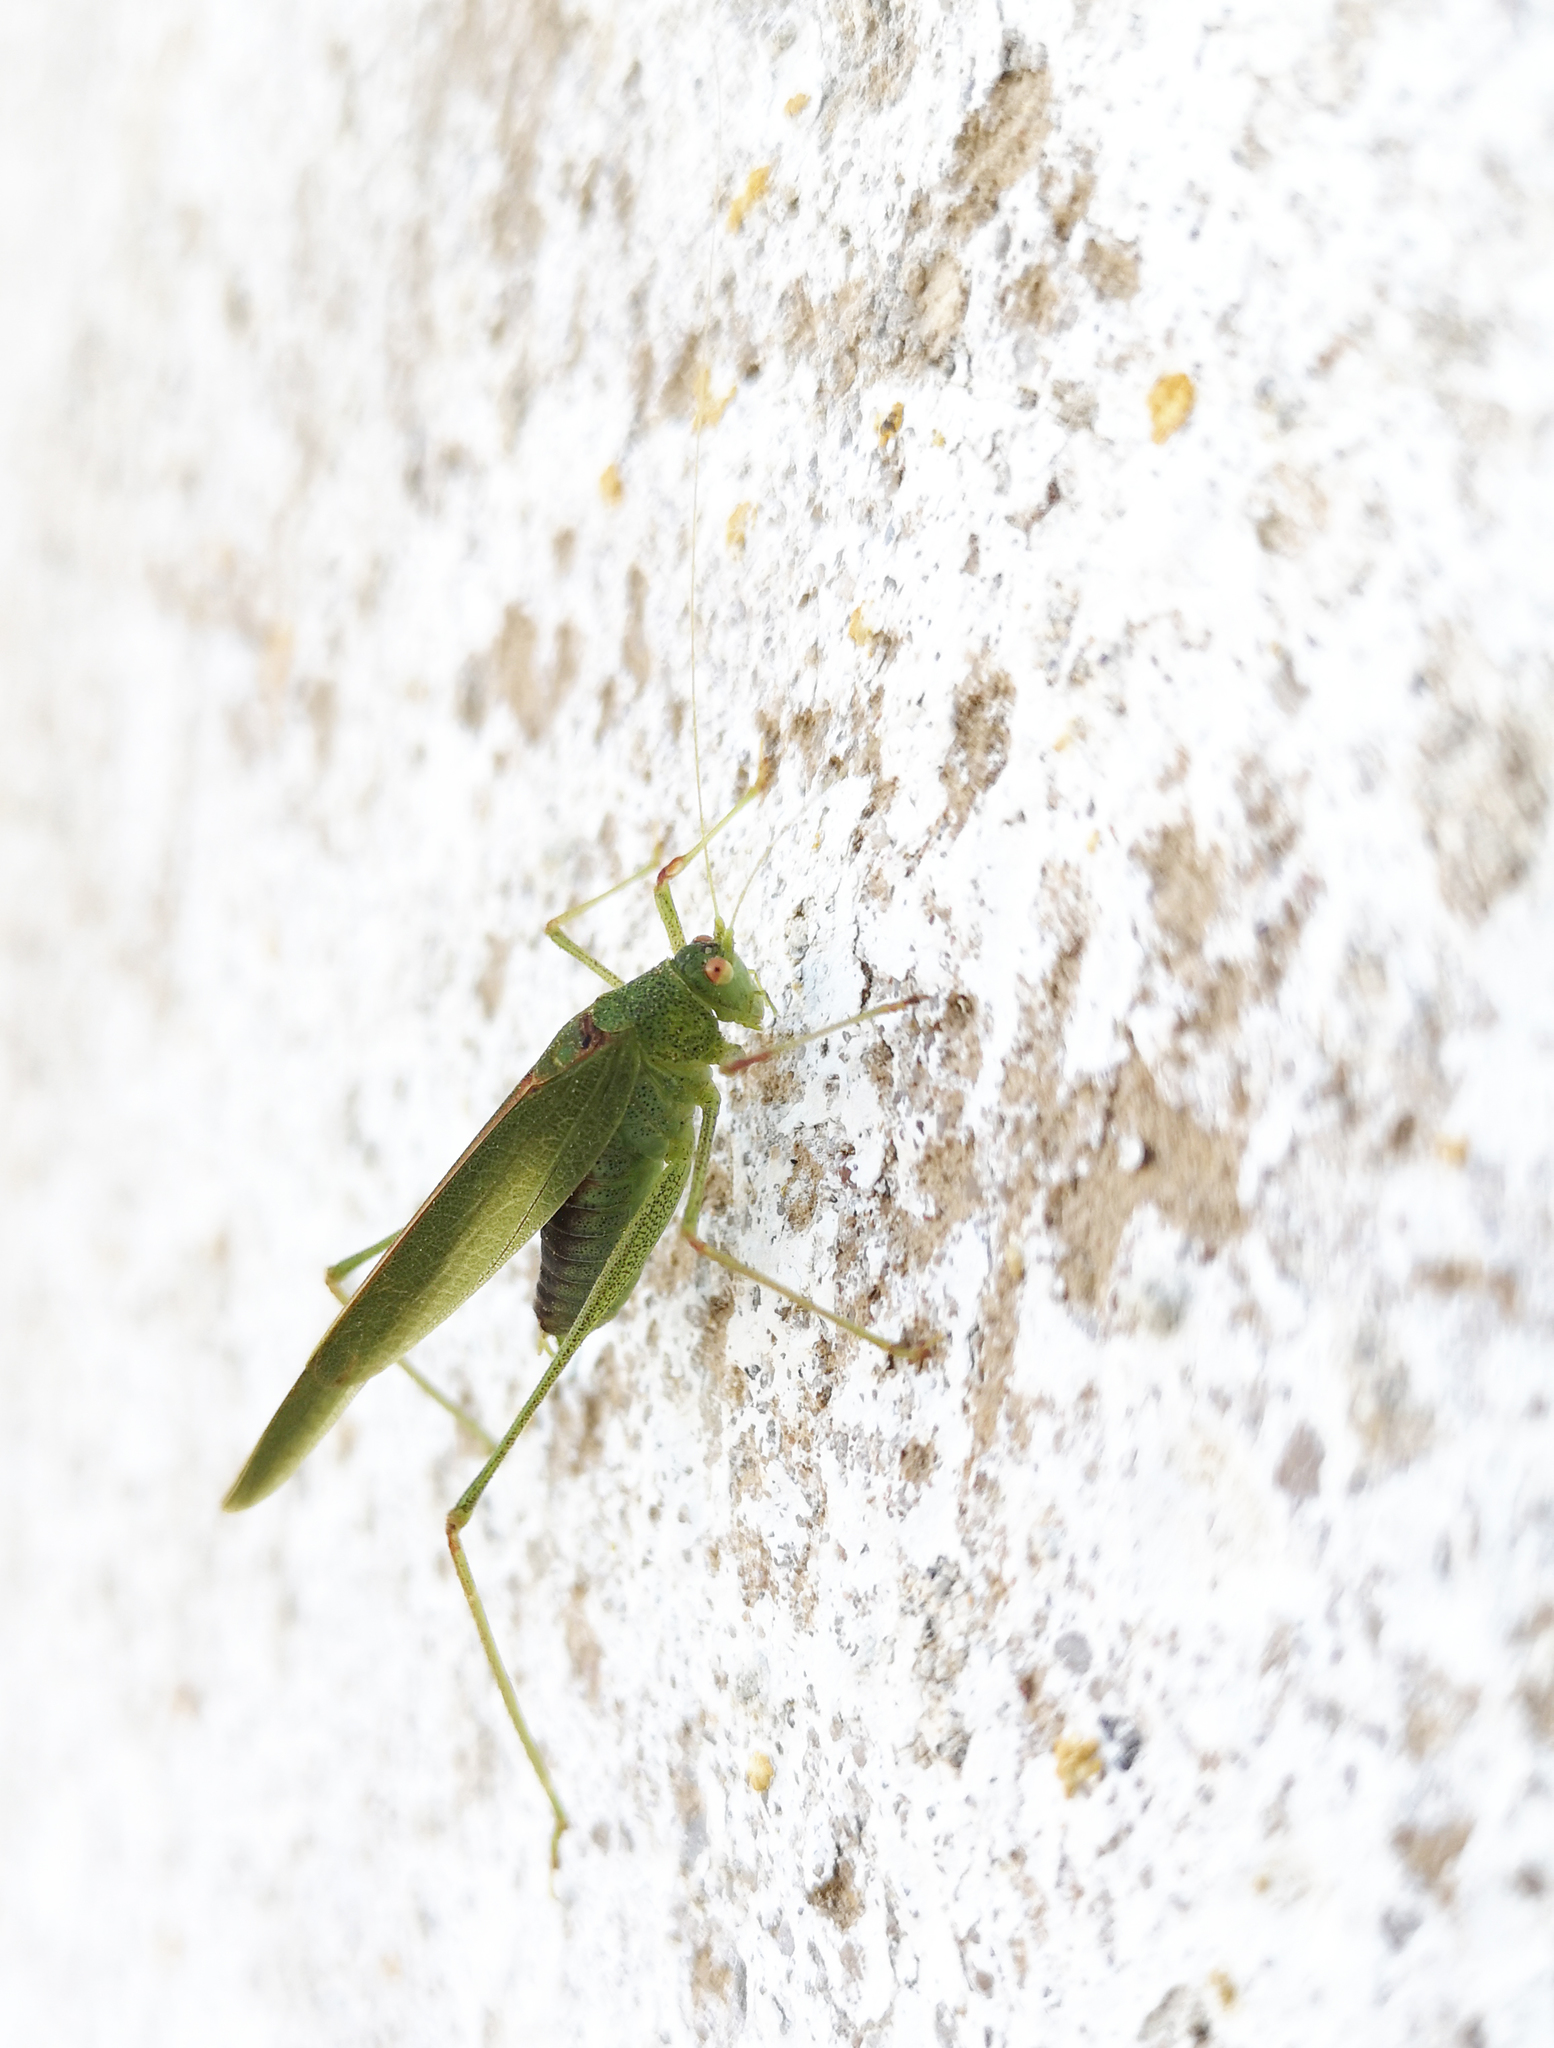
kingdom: Animalia
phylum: Arthropoda
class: Insecta
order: Orthoptera
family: Tettigoniidae
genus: Phaneroptera
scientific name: Phaneroptera nana
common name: Southern sickle bush-cricket
